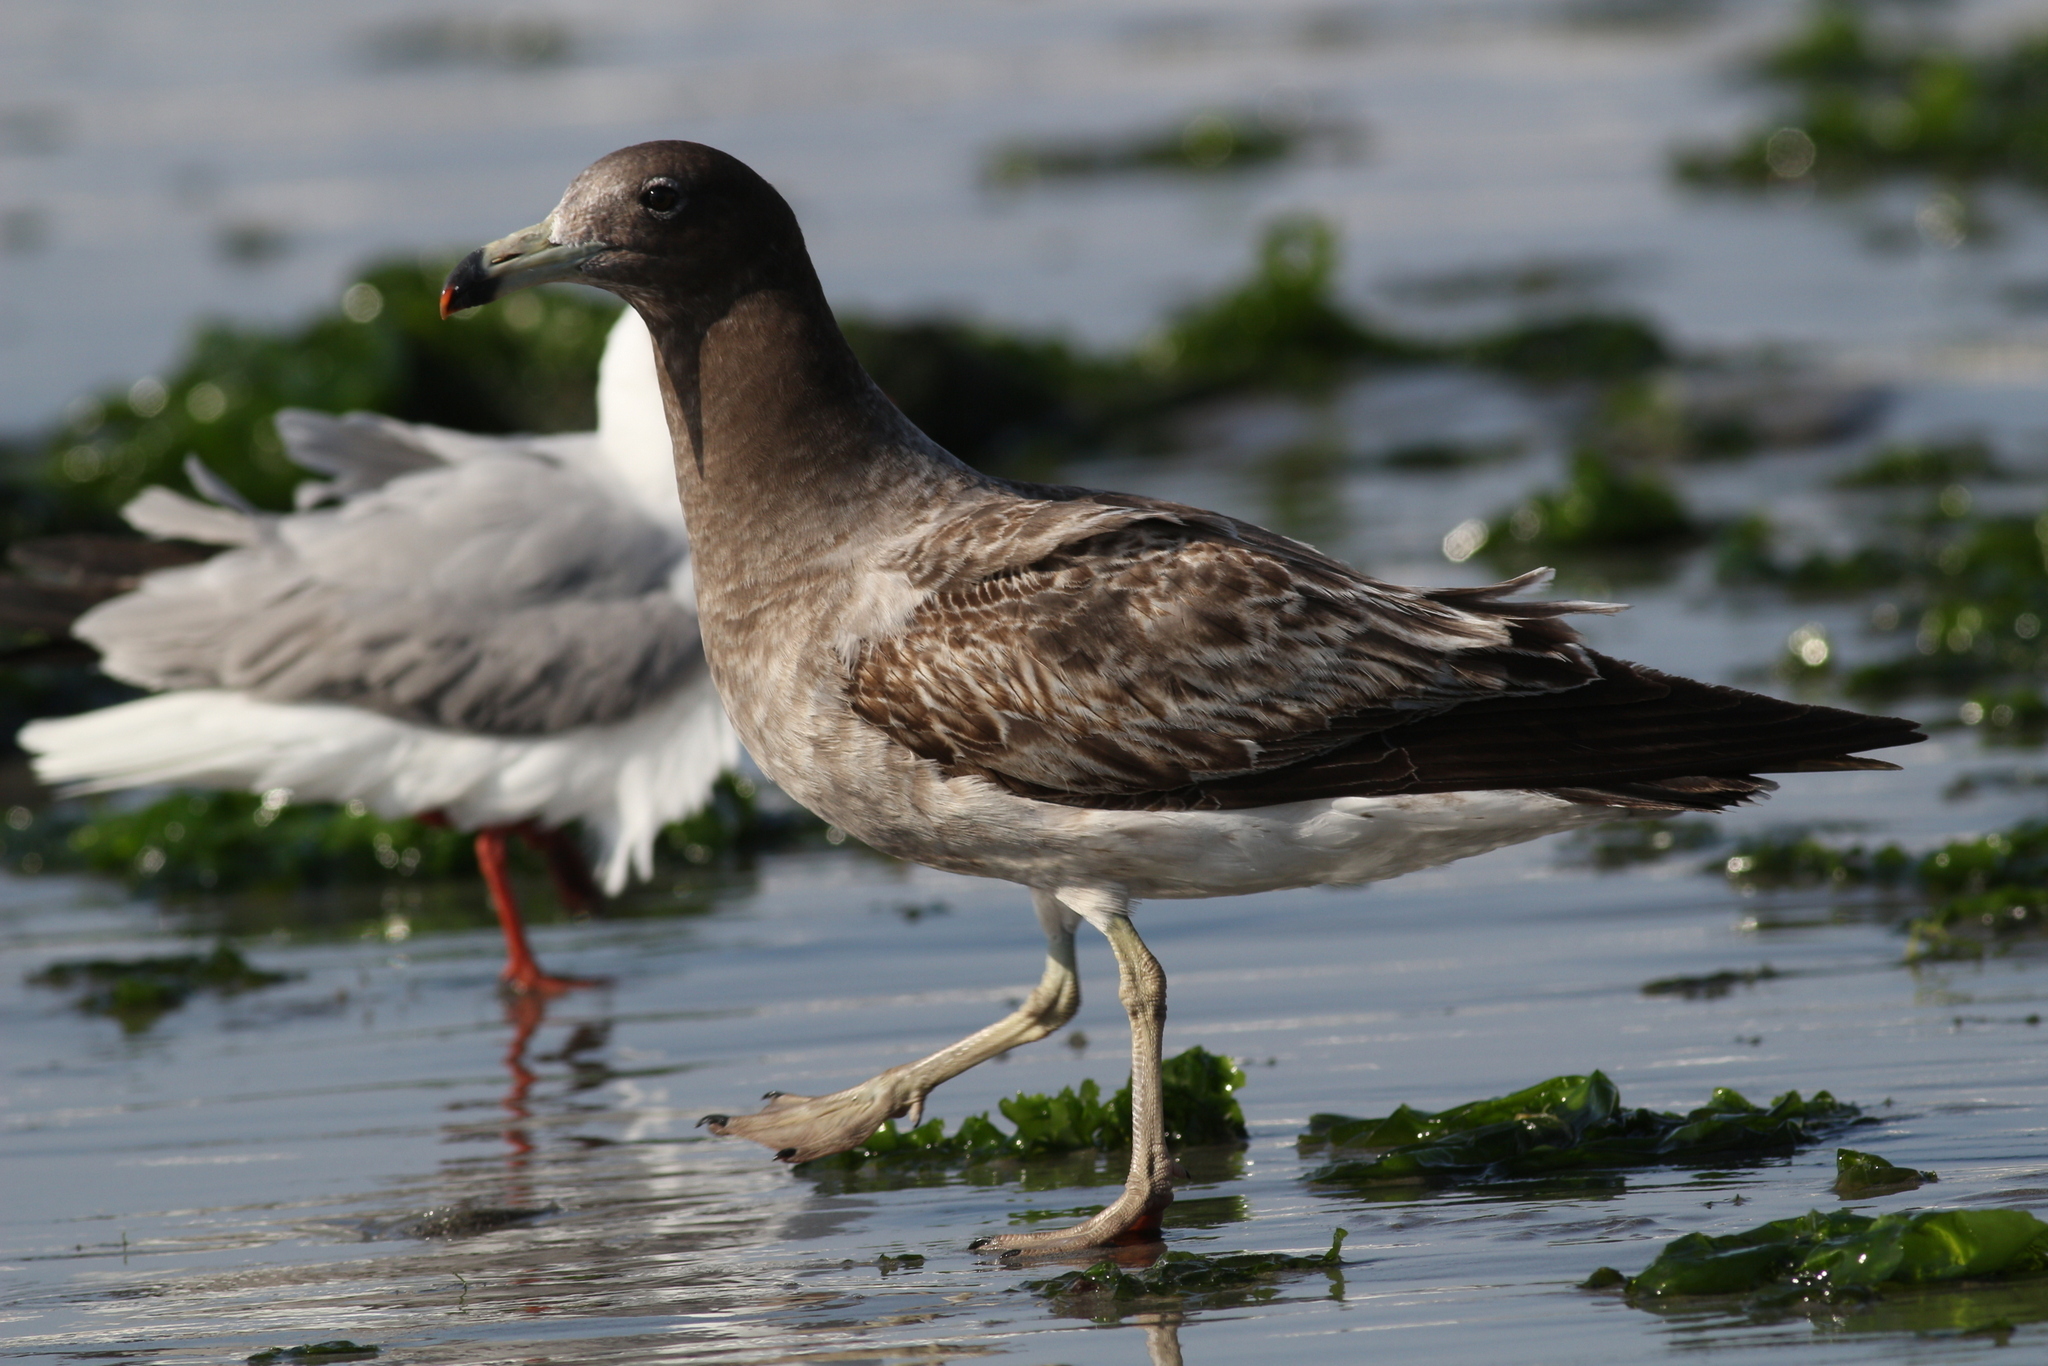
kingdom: Animalia
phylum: Chordata
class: Aves
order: Charadriiformes
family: Laridae
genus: Larus
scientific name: Larus belcheri
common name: Belcher's gull
